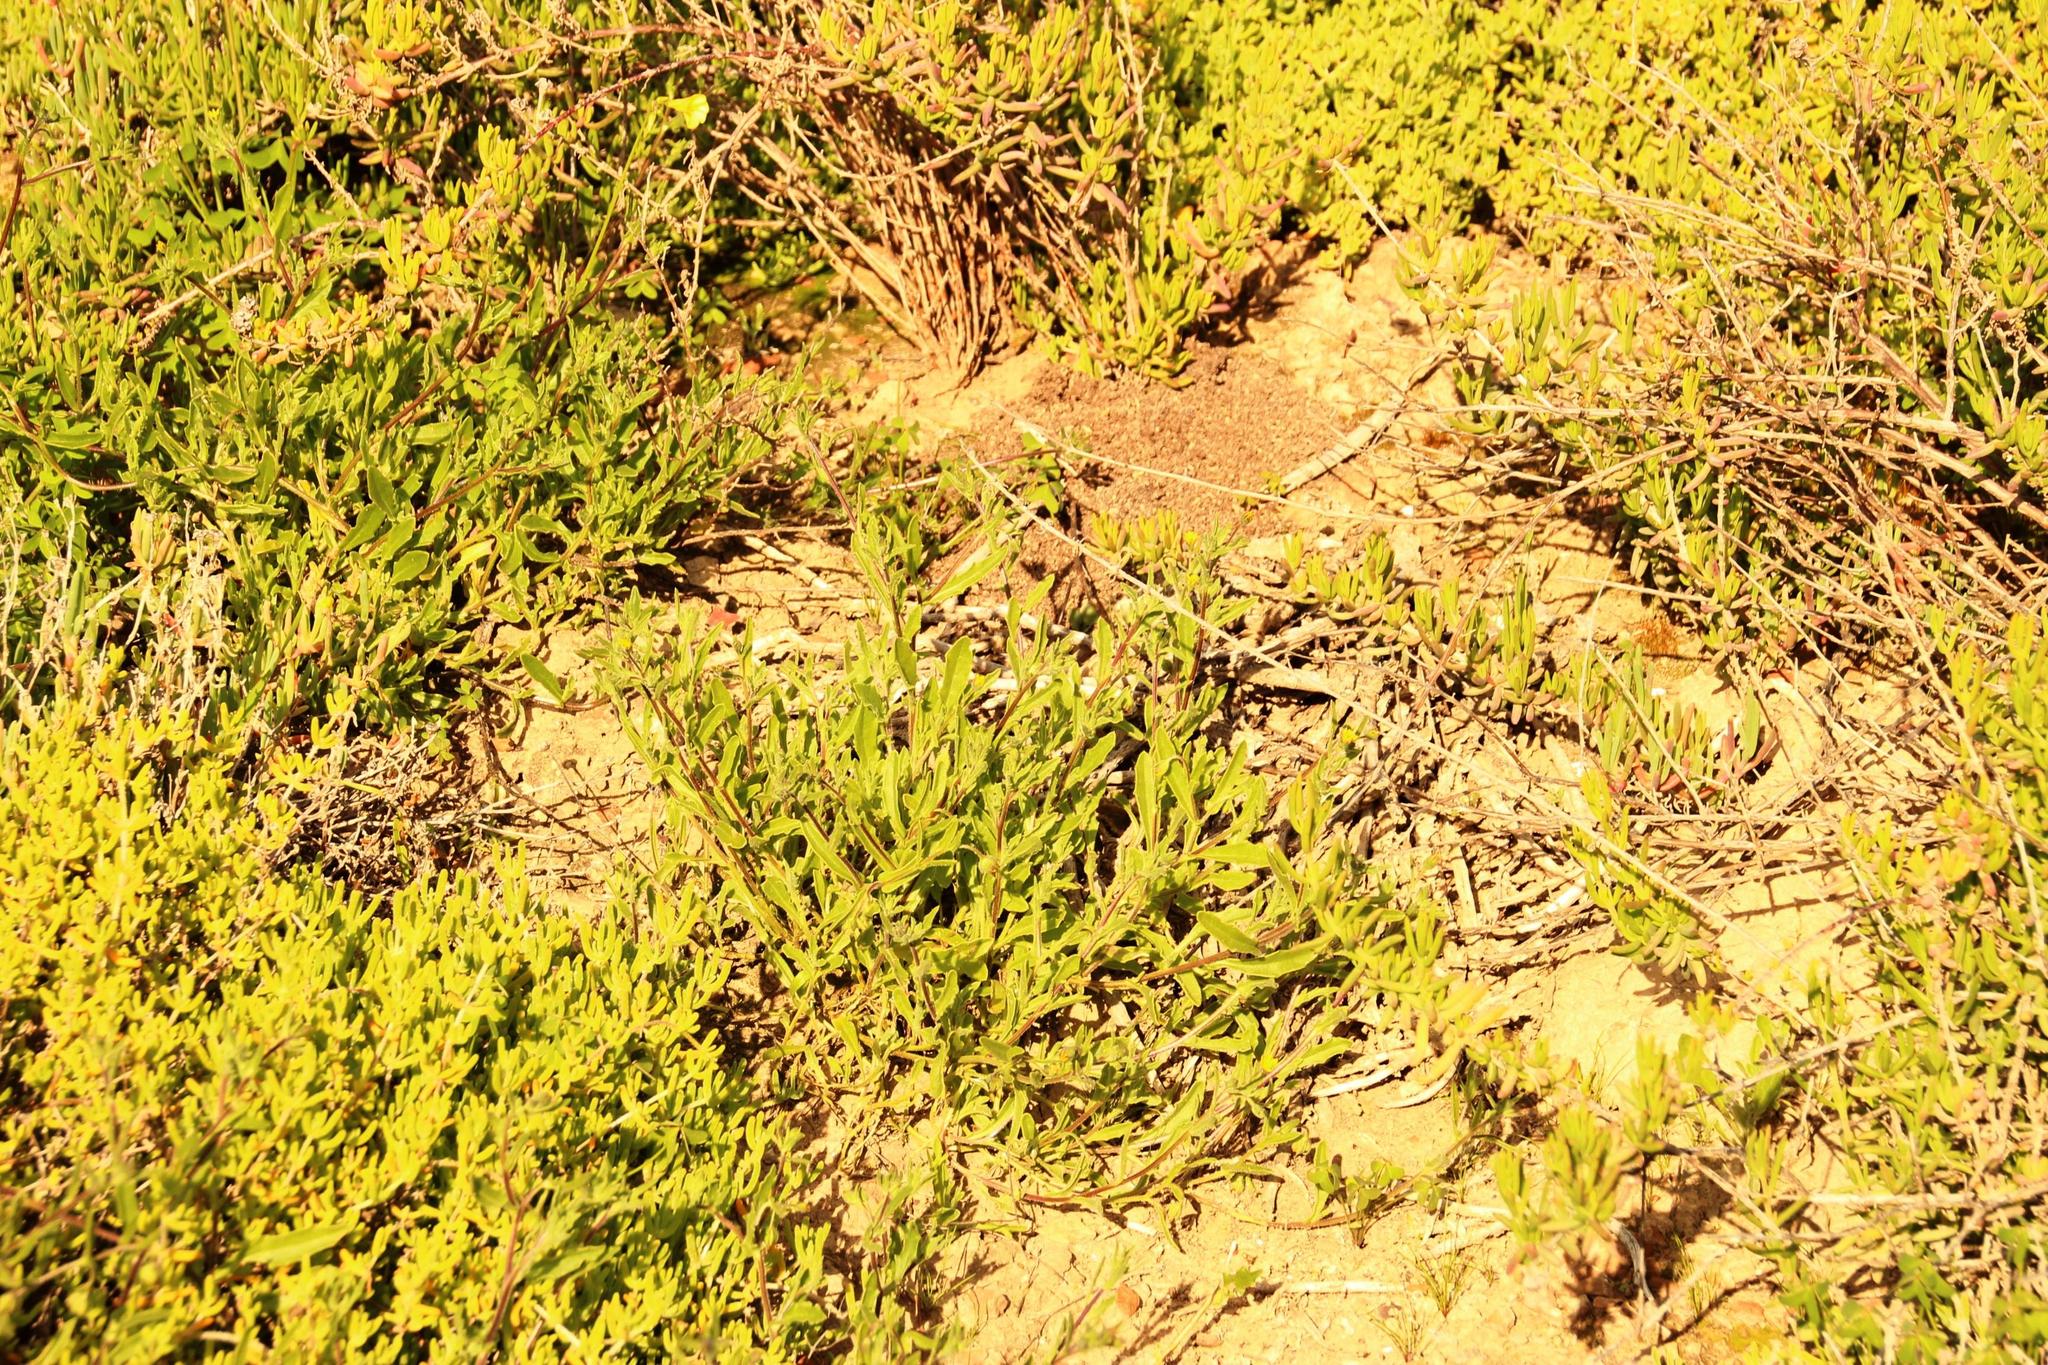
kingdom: Plantae
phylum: Tracheophyta
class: Magnoliopsida
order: Asterales
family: Asteraceae
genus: Osteospermum
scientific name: Osteospermum calendulaceum
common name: Stinking roger
